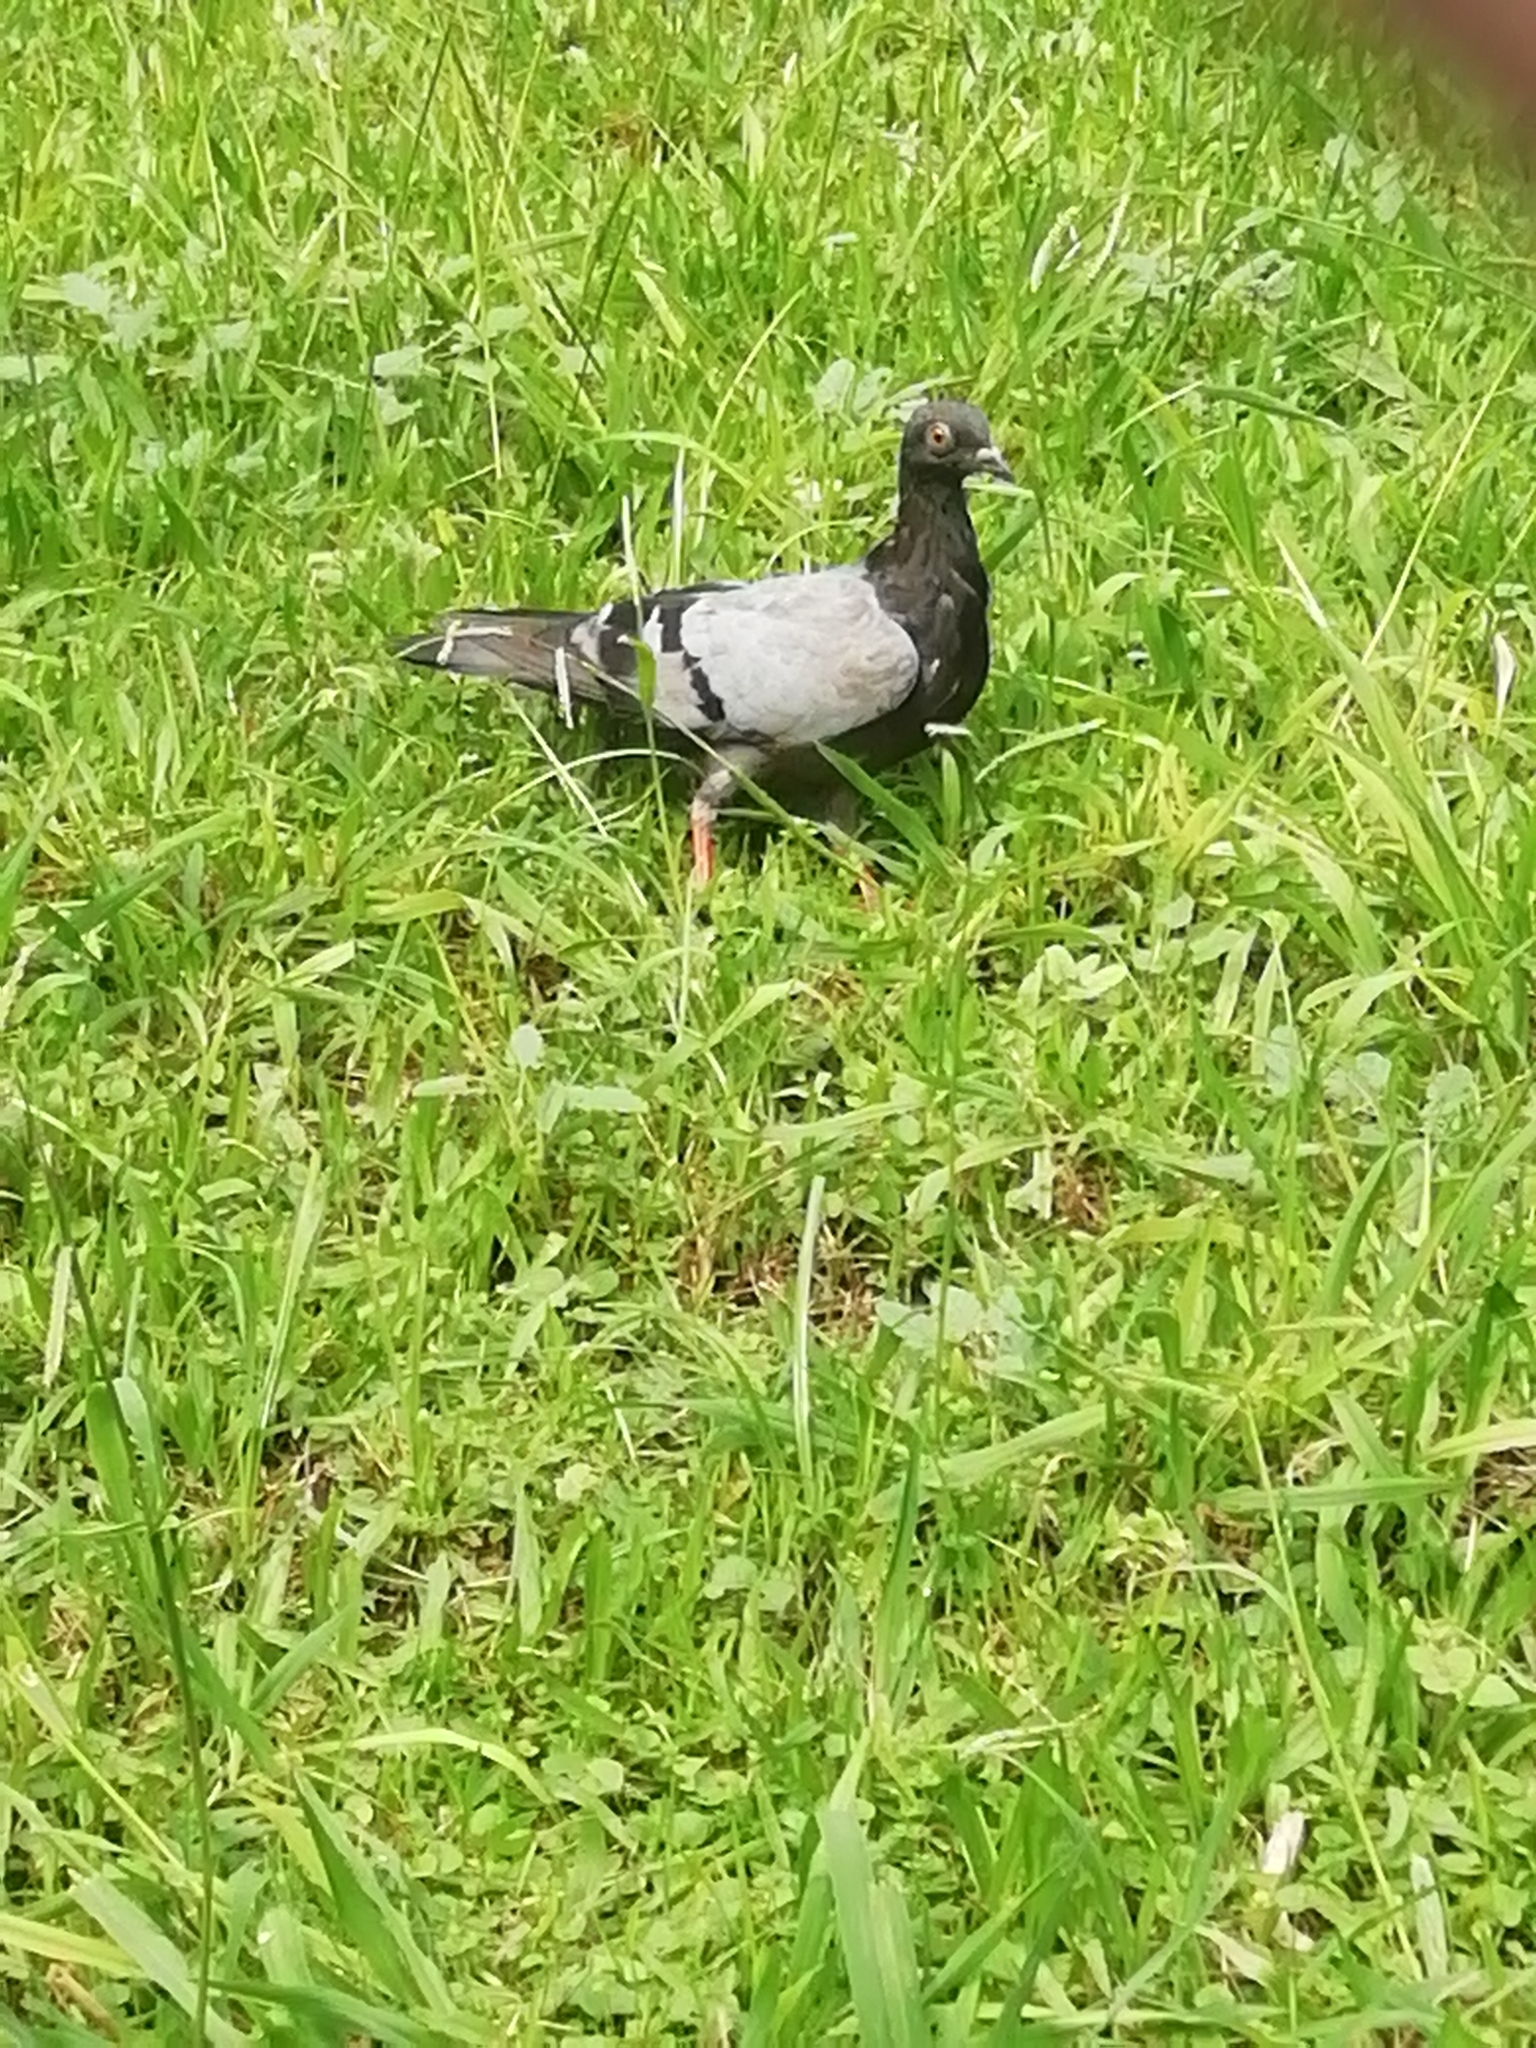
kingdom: Animalia
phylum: Chordata
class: Aves
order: Columbiformes
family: Columbidae
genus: Columba
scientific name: Columba livia
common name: Rock pigeon
